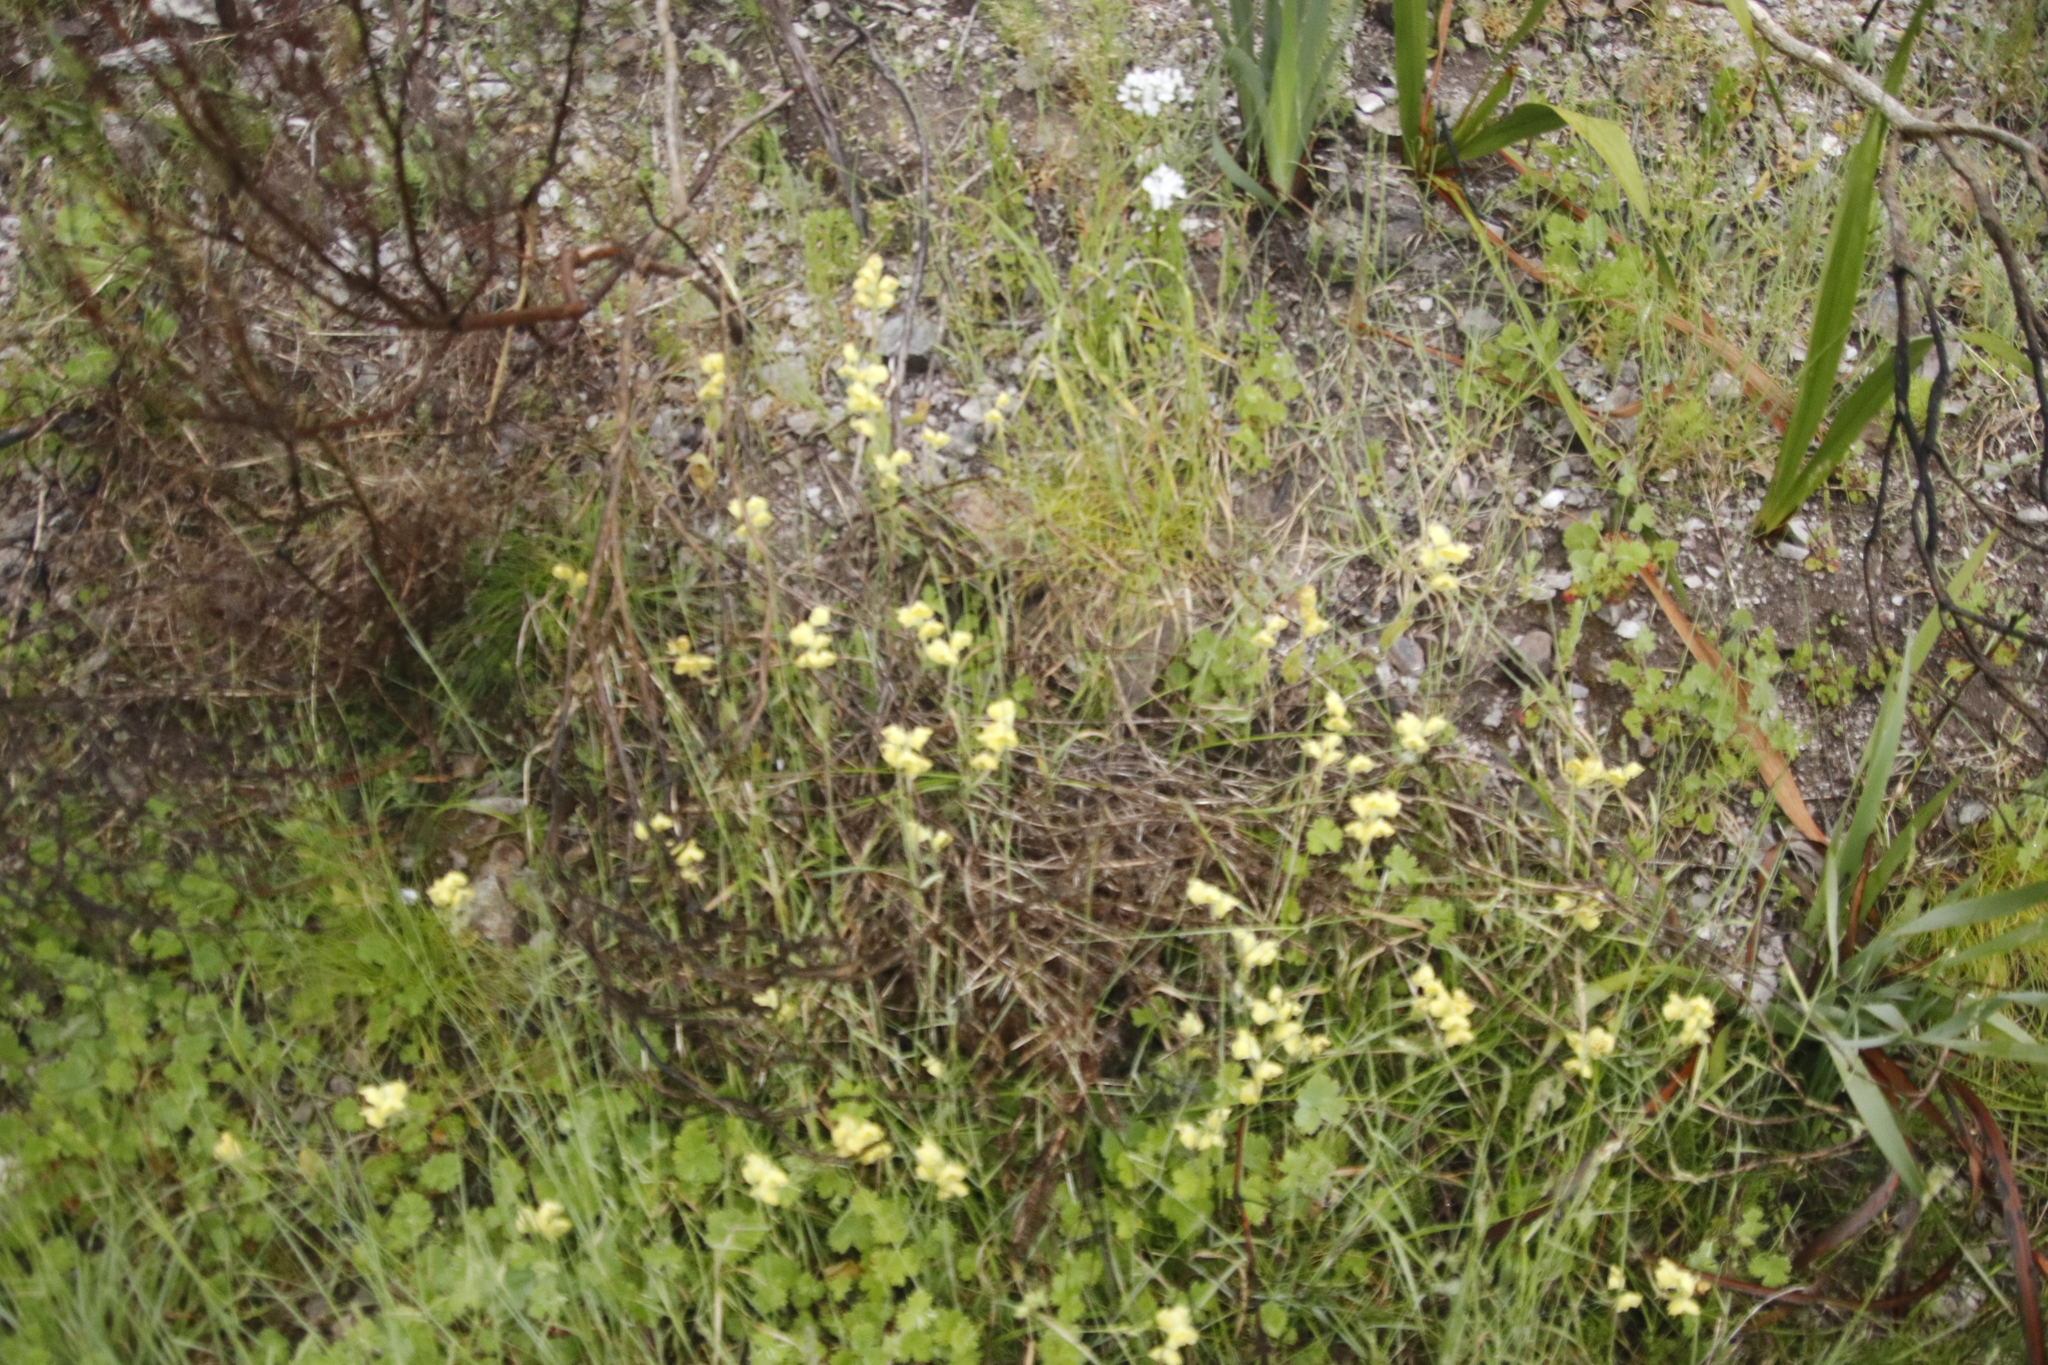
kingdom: Plantae
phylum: Tracheophyta
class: Liliopsida
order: Asparagales
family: Orchidaceae
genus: Pterygodium
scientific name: Pterygodium catholicum
